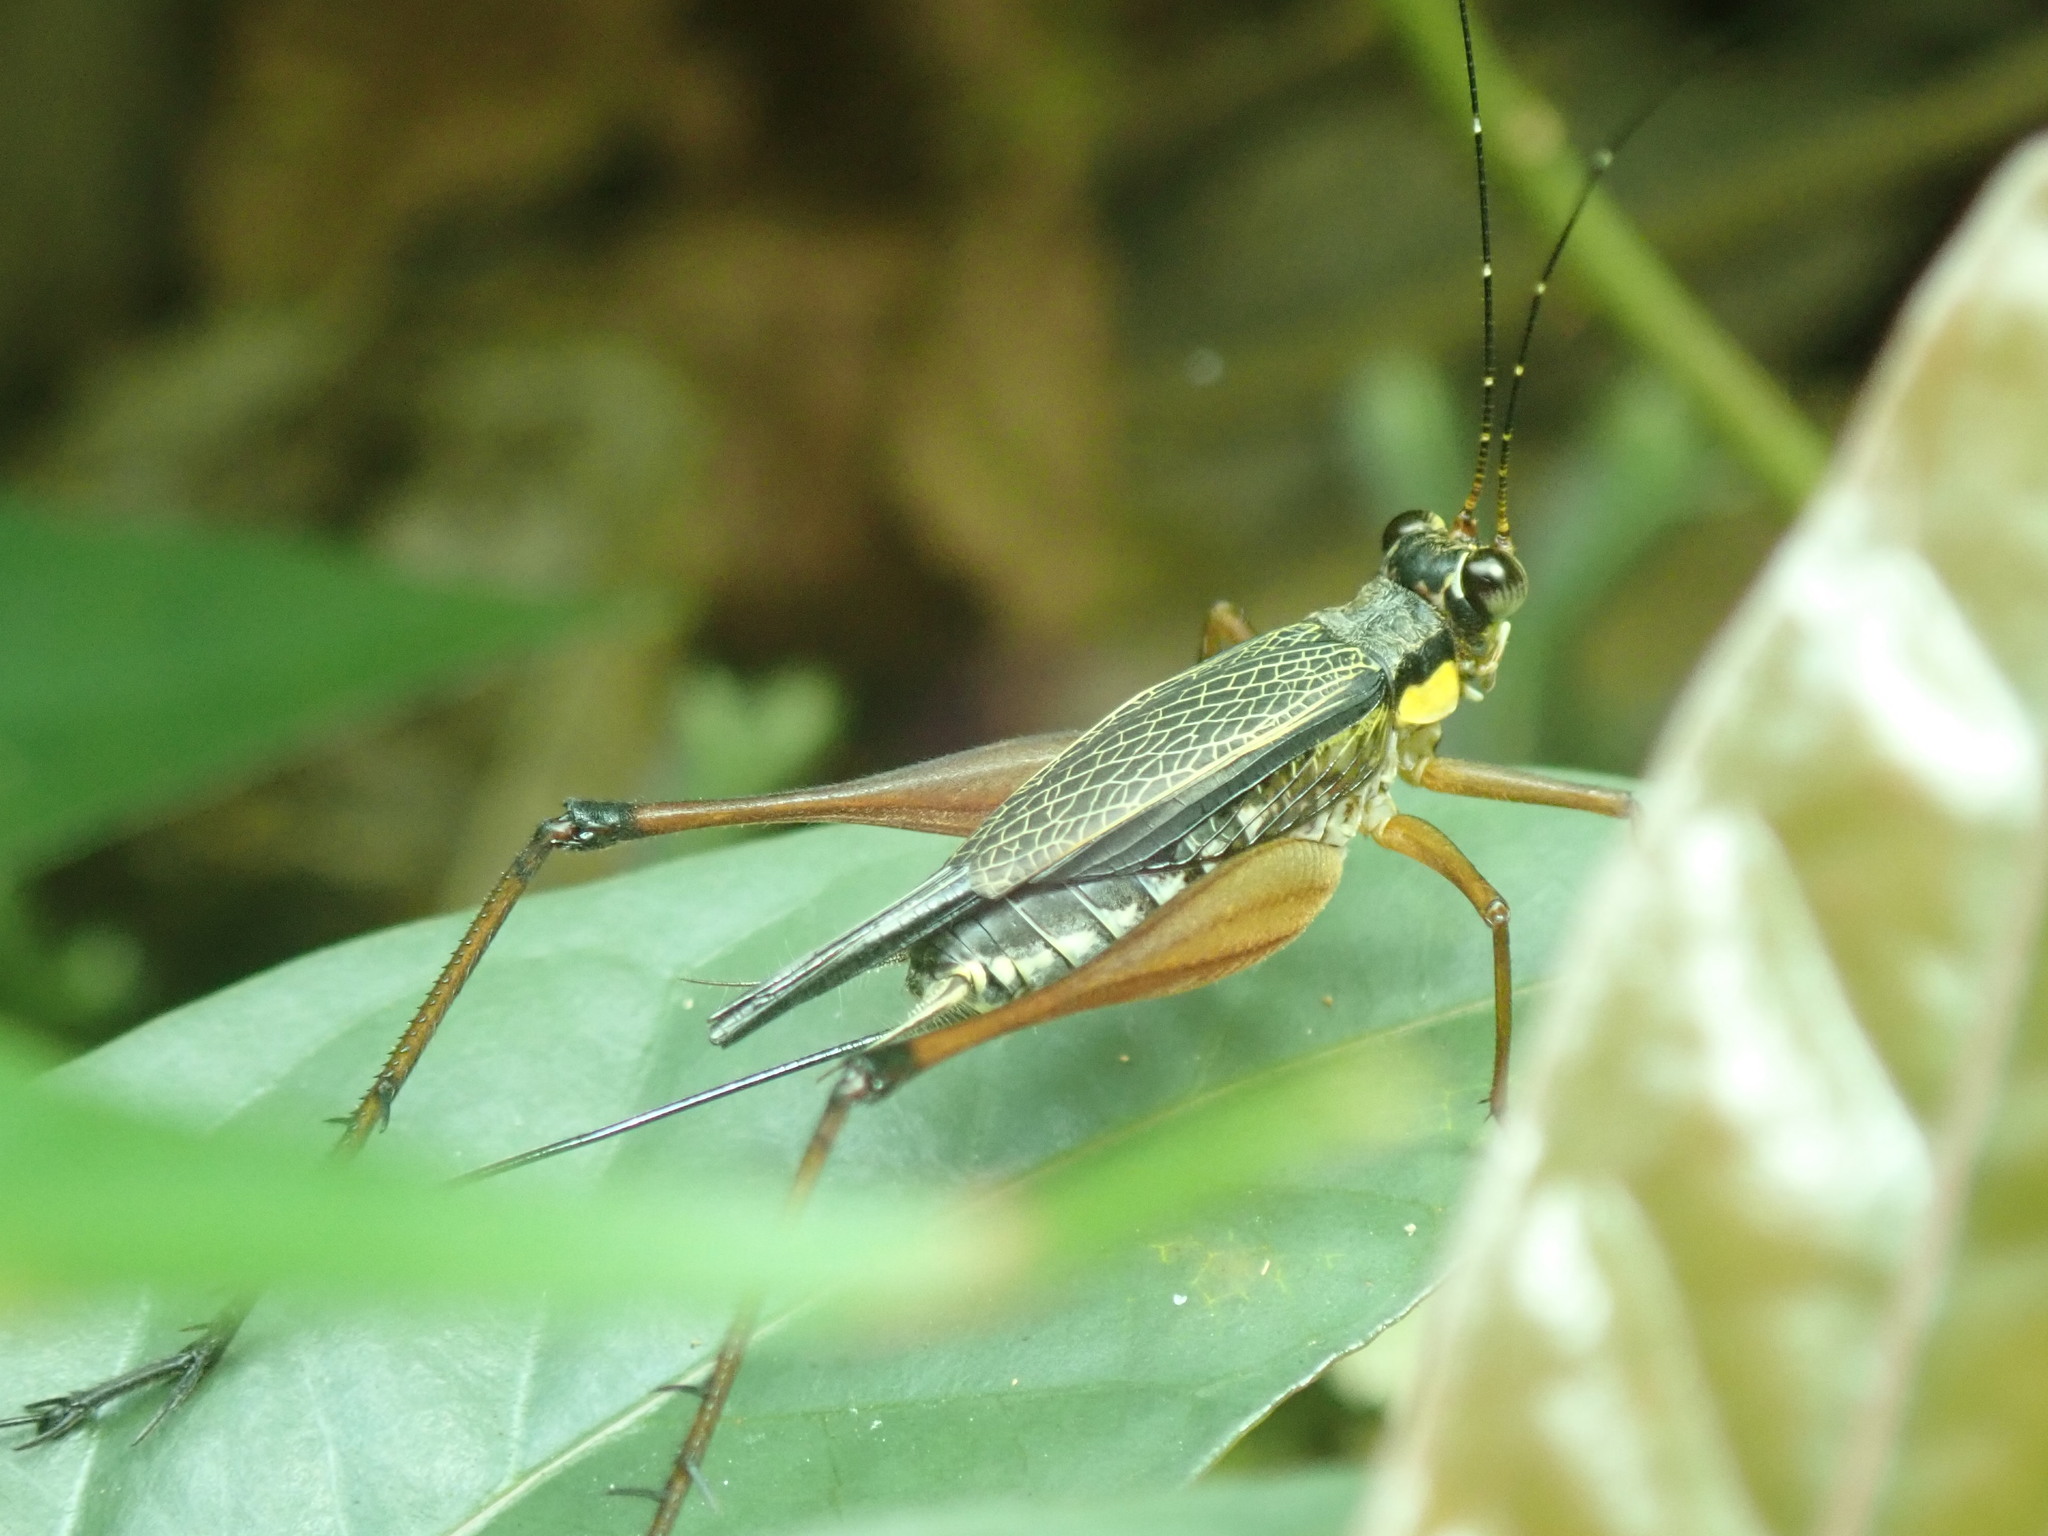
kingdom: Animalia
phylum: Arthropoda
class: Insecta
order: Orthoptera
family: Gryllidae
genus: Nisitrus
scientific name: Nisitrus malaya
